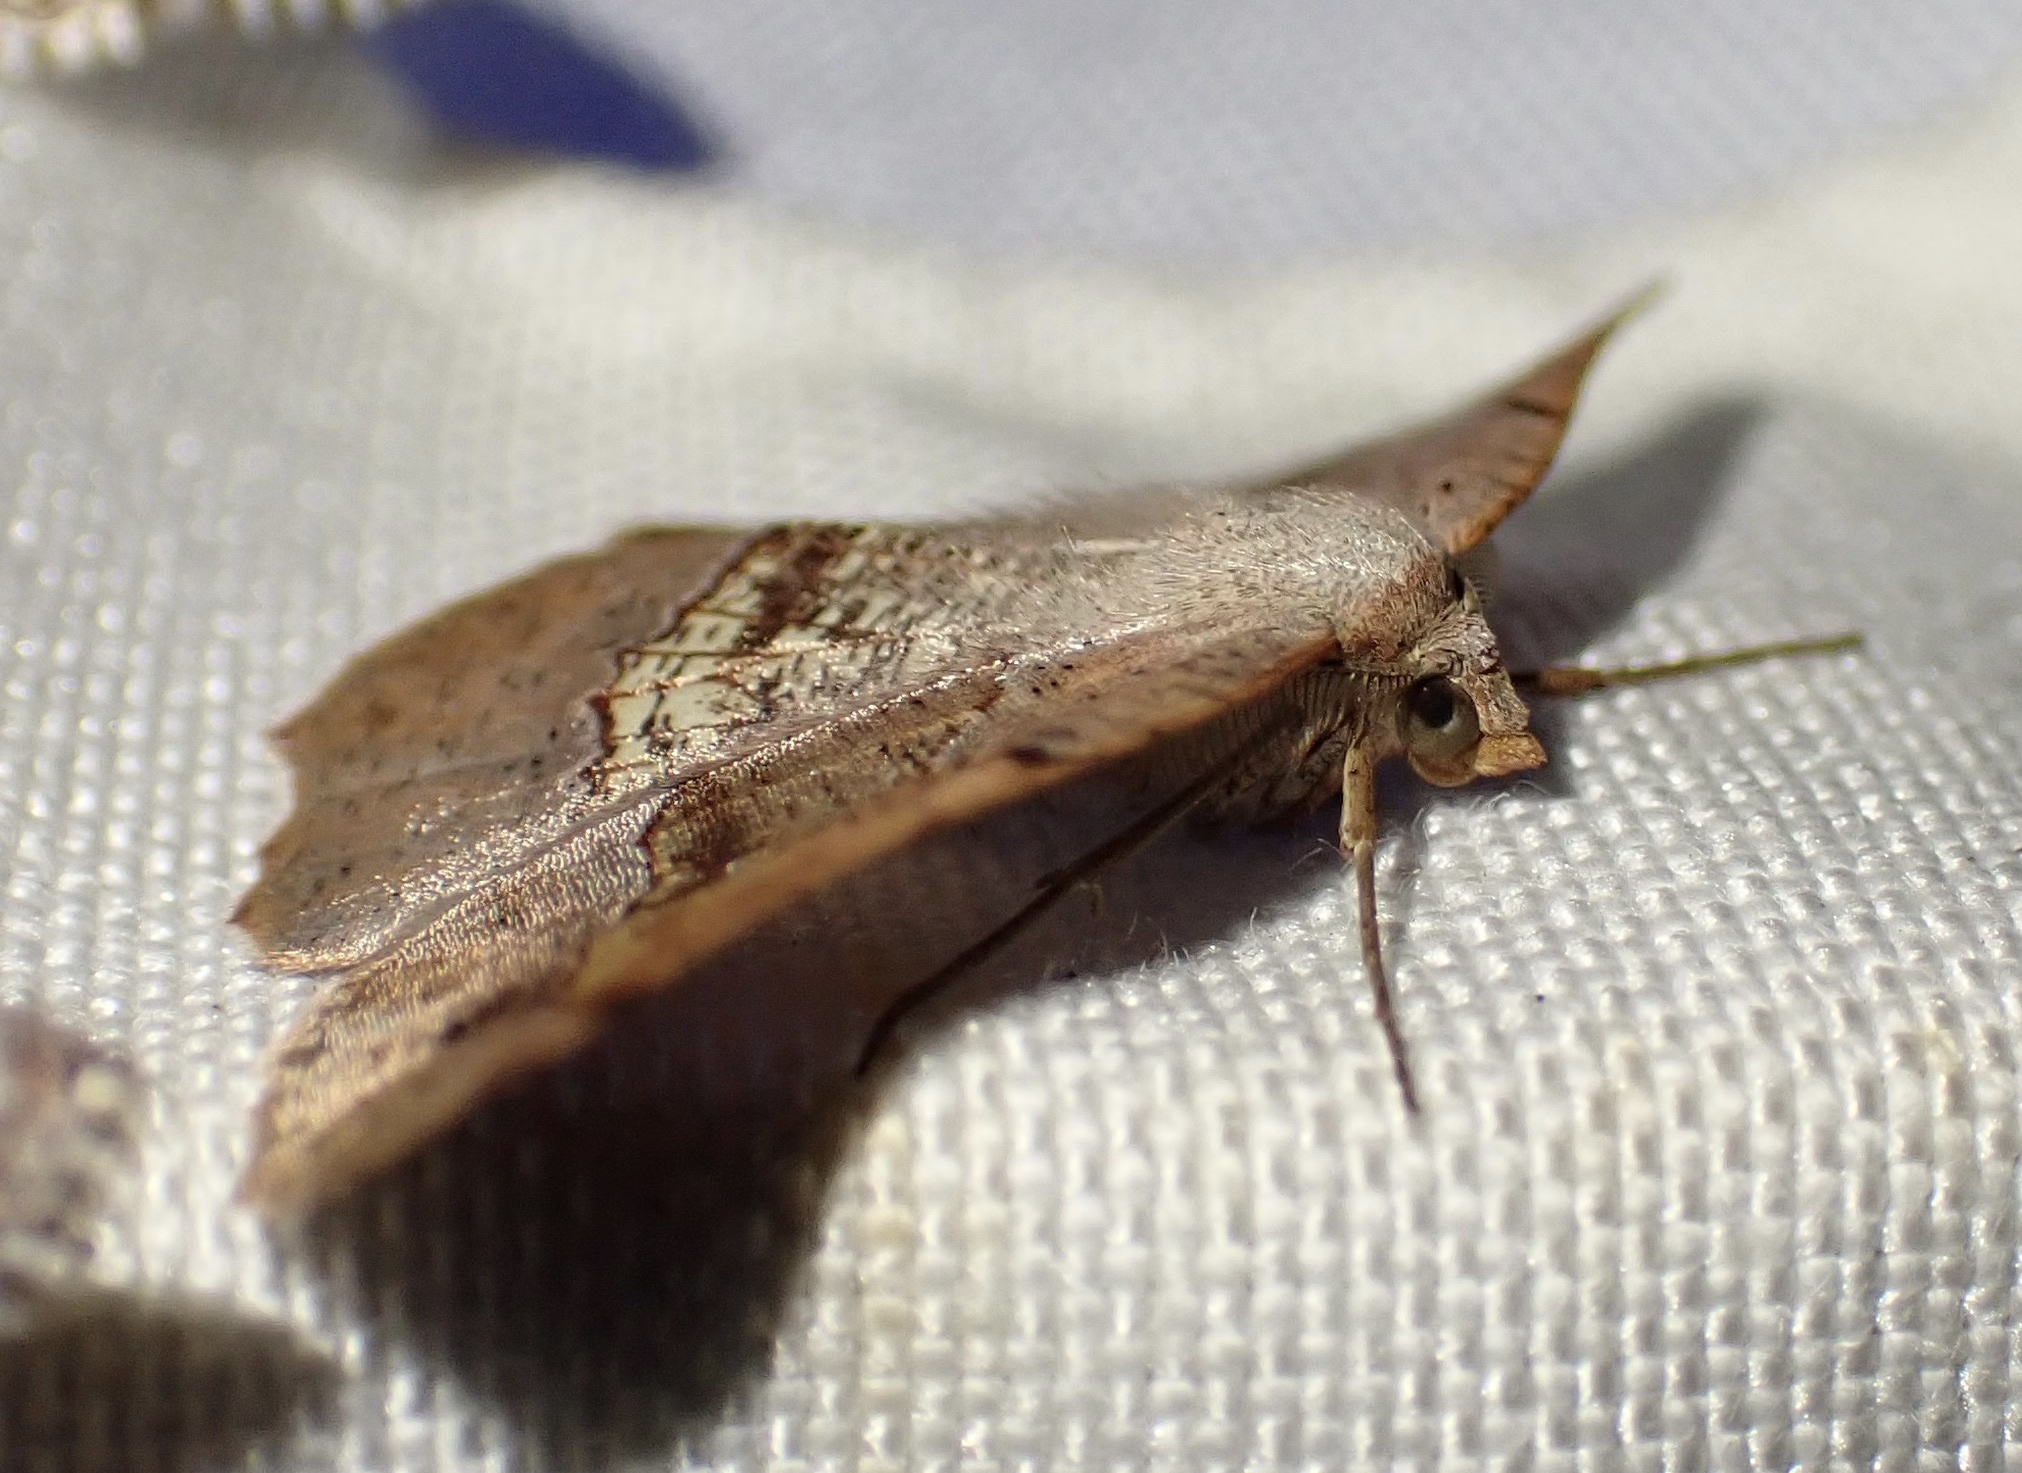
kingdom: Animalia
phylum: Arthropoda
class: Insecta
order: Lepidoptera
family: Geometridae
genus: Drepanogynis
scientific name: Drepanogynis mixtaria
